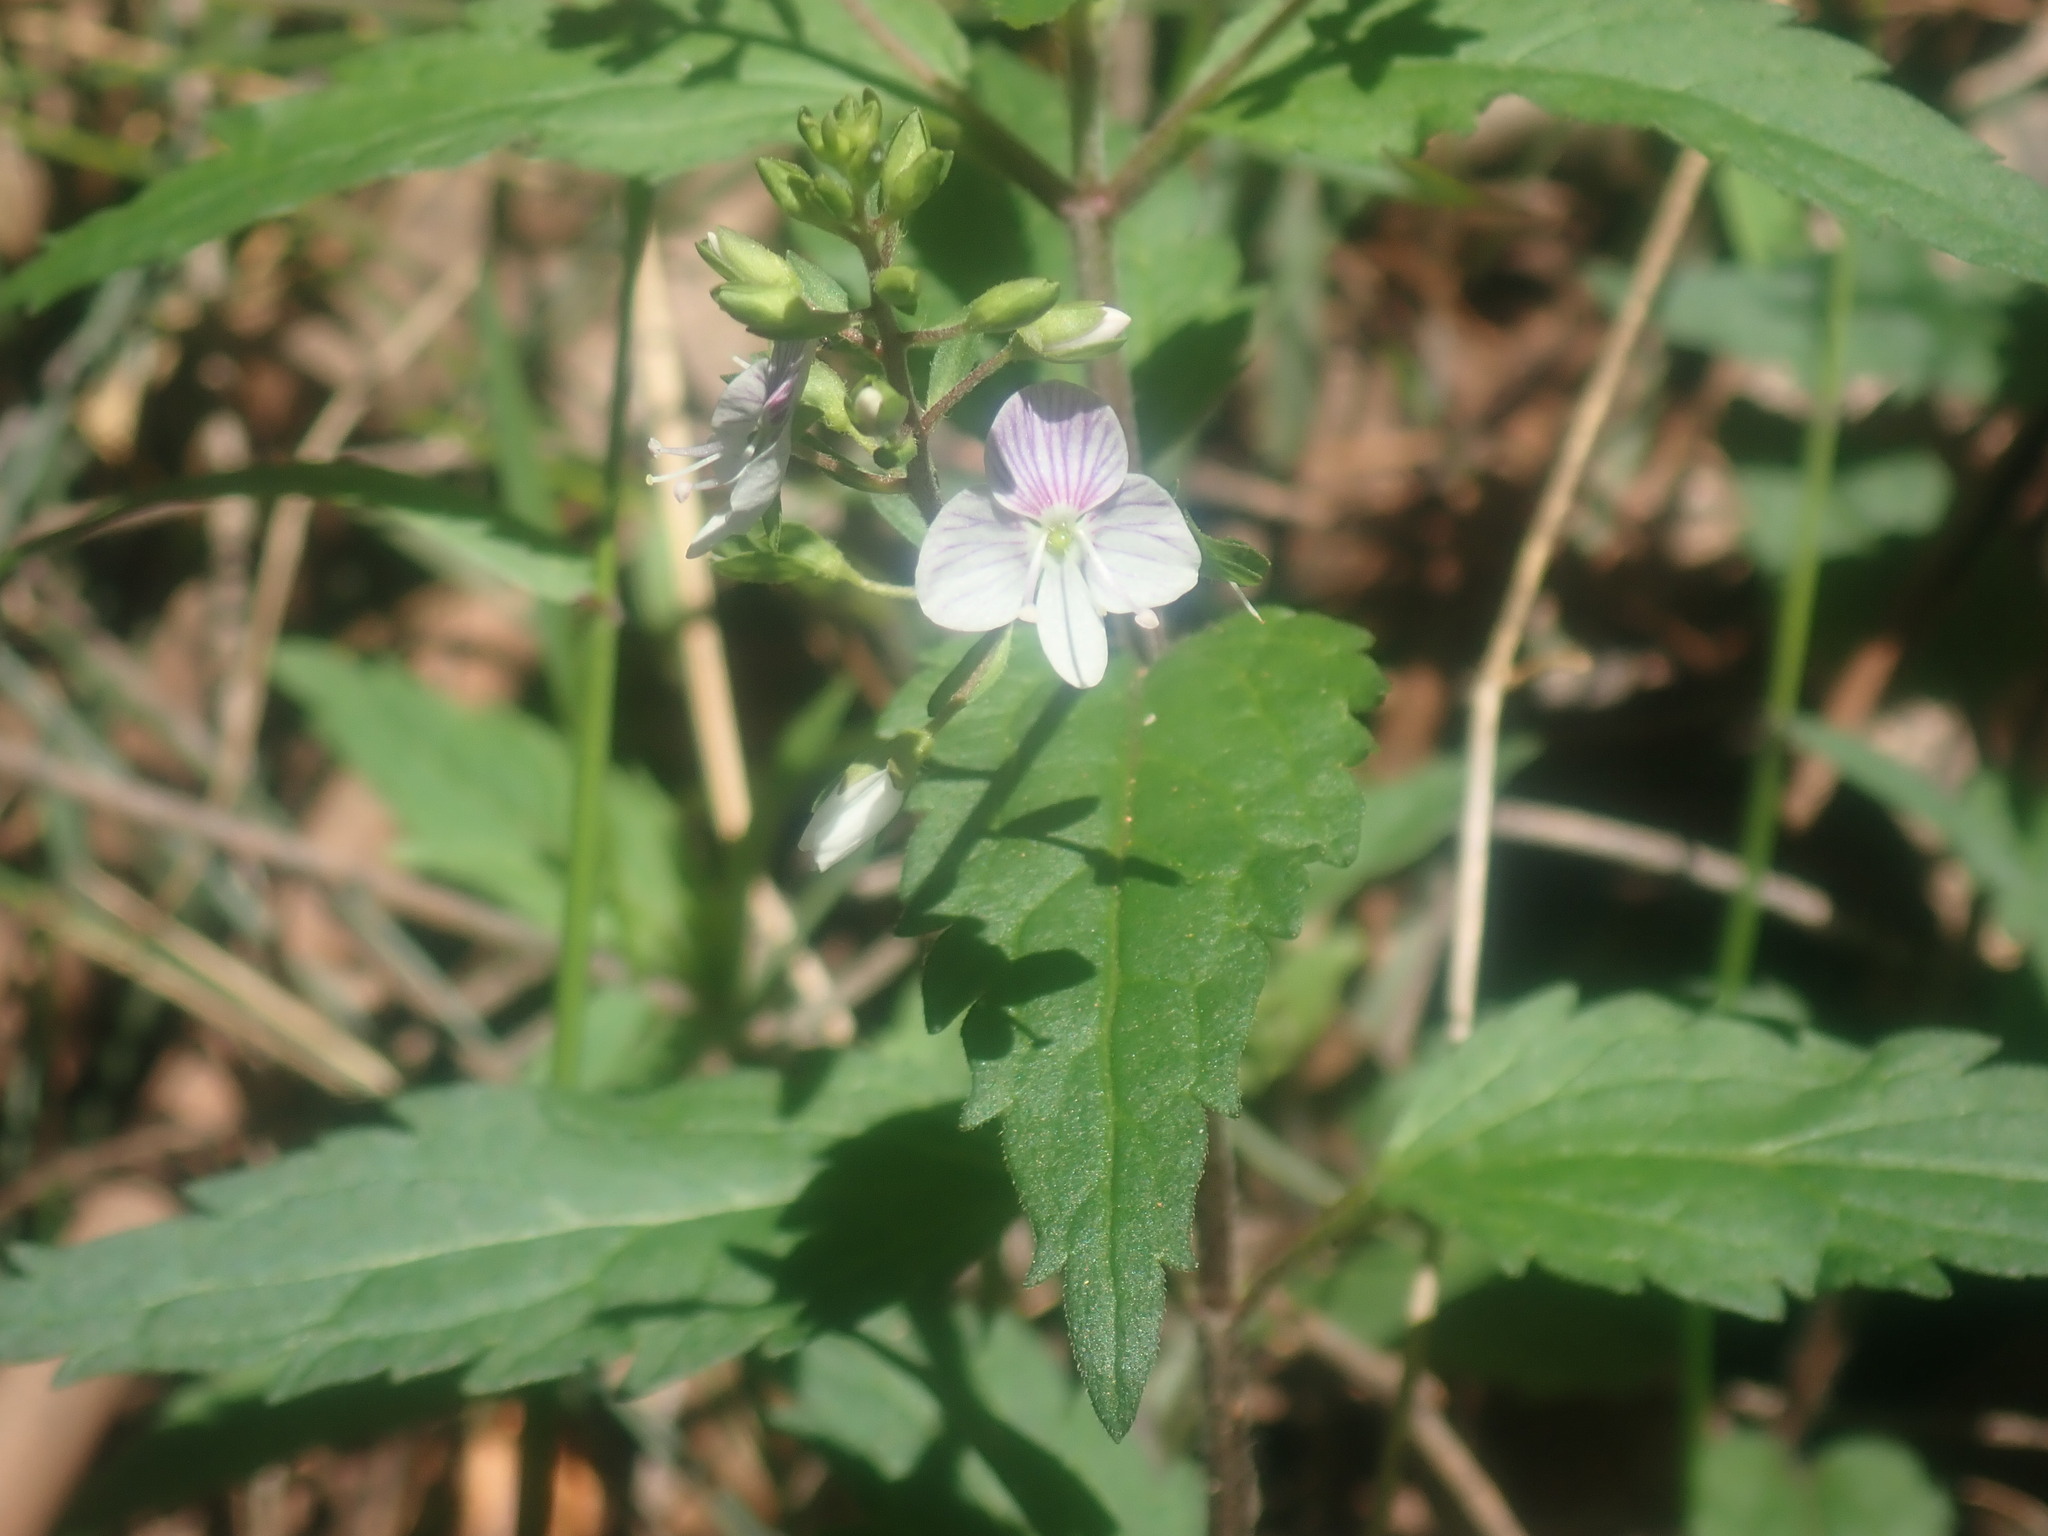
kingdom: Plantae
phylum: Tracheophyta
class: Magnoliopsida
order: Lamiales
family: Plantaginaceae
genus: Veronica
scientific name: Veronica notabilis
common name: Forest speedwell
